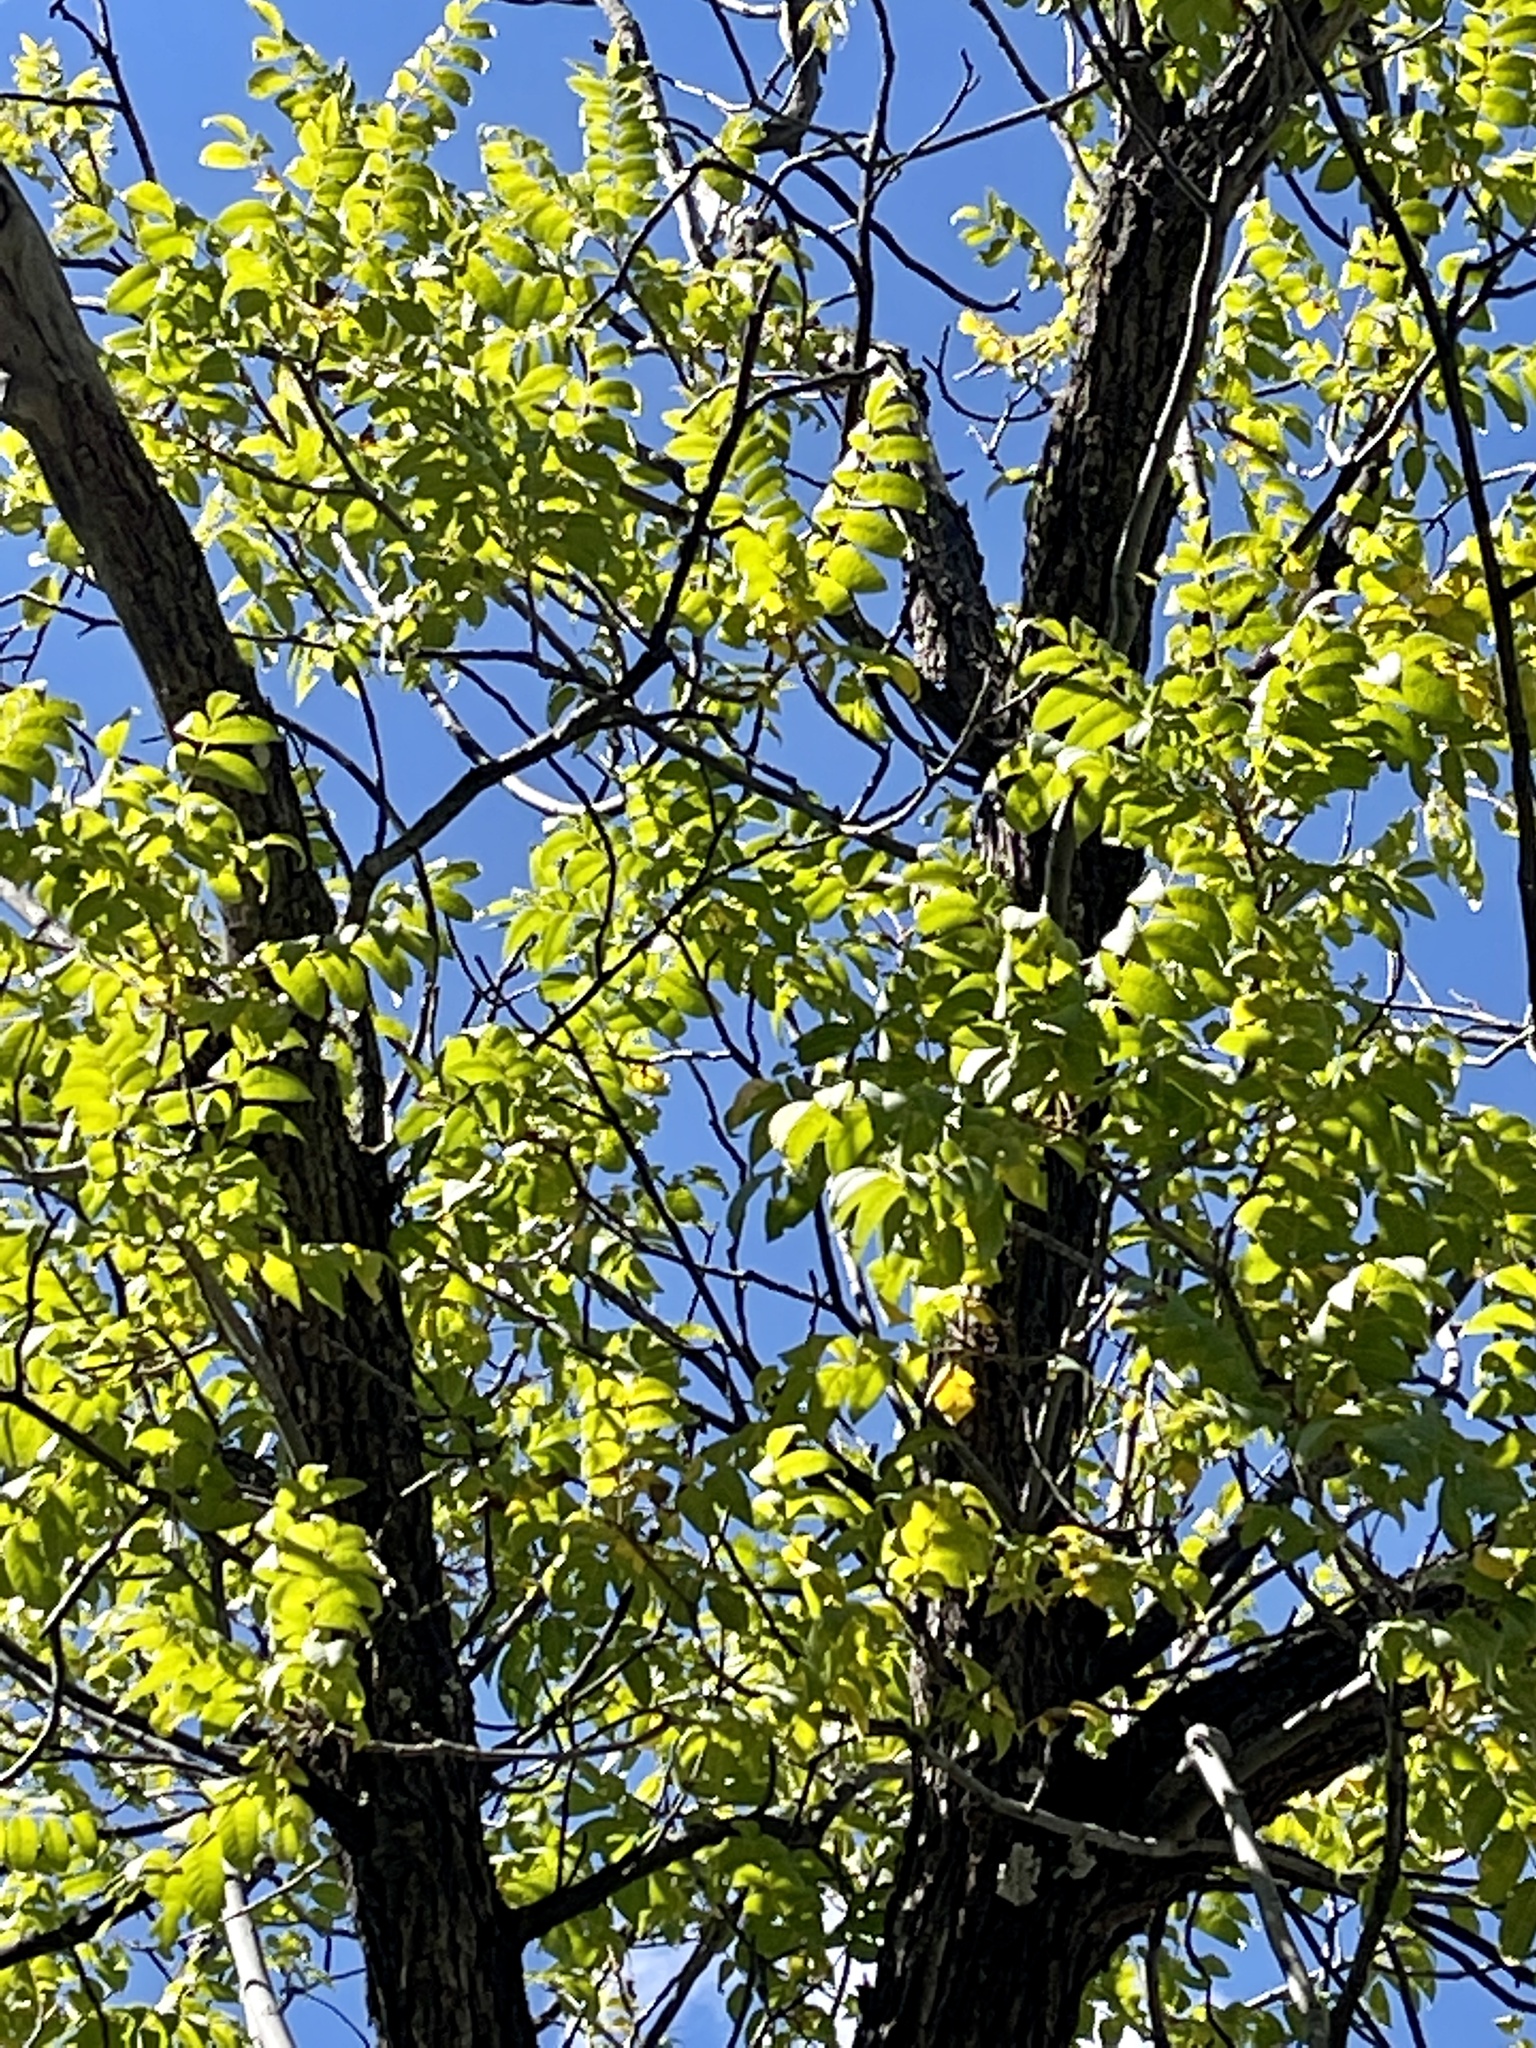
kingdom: Plantae
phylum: Tracheophyta
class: Magnoliopsida
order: Fagales
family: Juglandaceae
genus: Juglans
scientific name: Juglans major
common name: Arizona walnut
